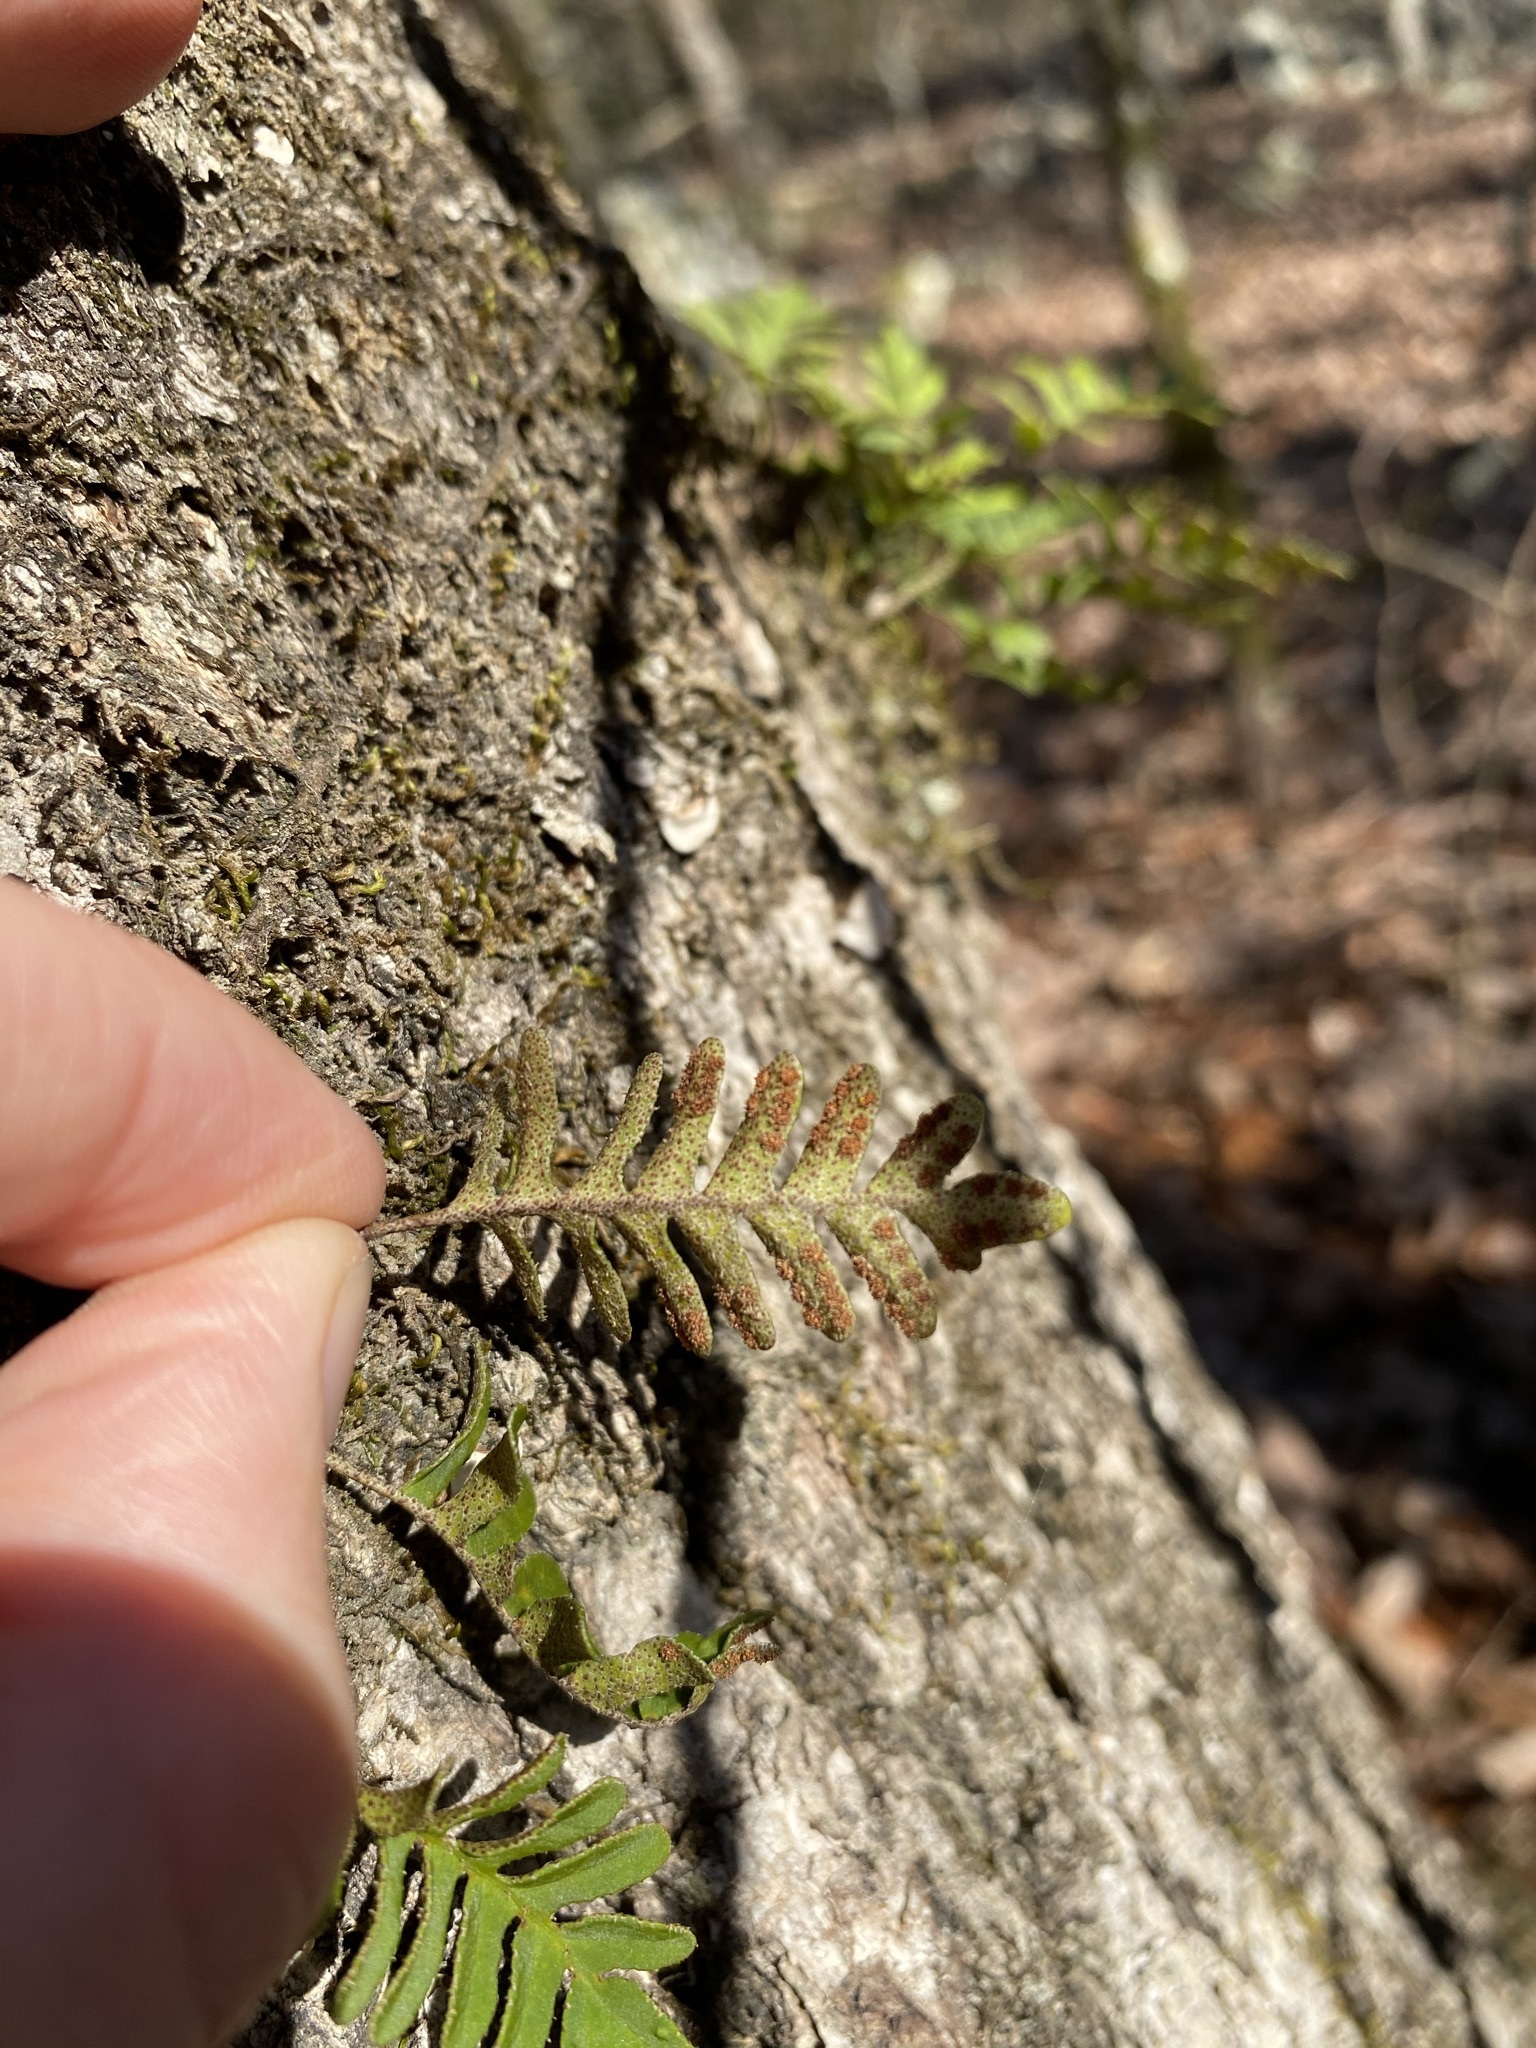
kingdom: Plantae
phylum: Tracheophyta
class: Polypodiopsida
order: Polypodiales
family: Polypodiaceae
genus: Pleopeltis
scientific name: Pleopeltis michauxiana
